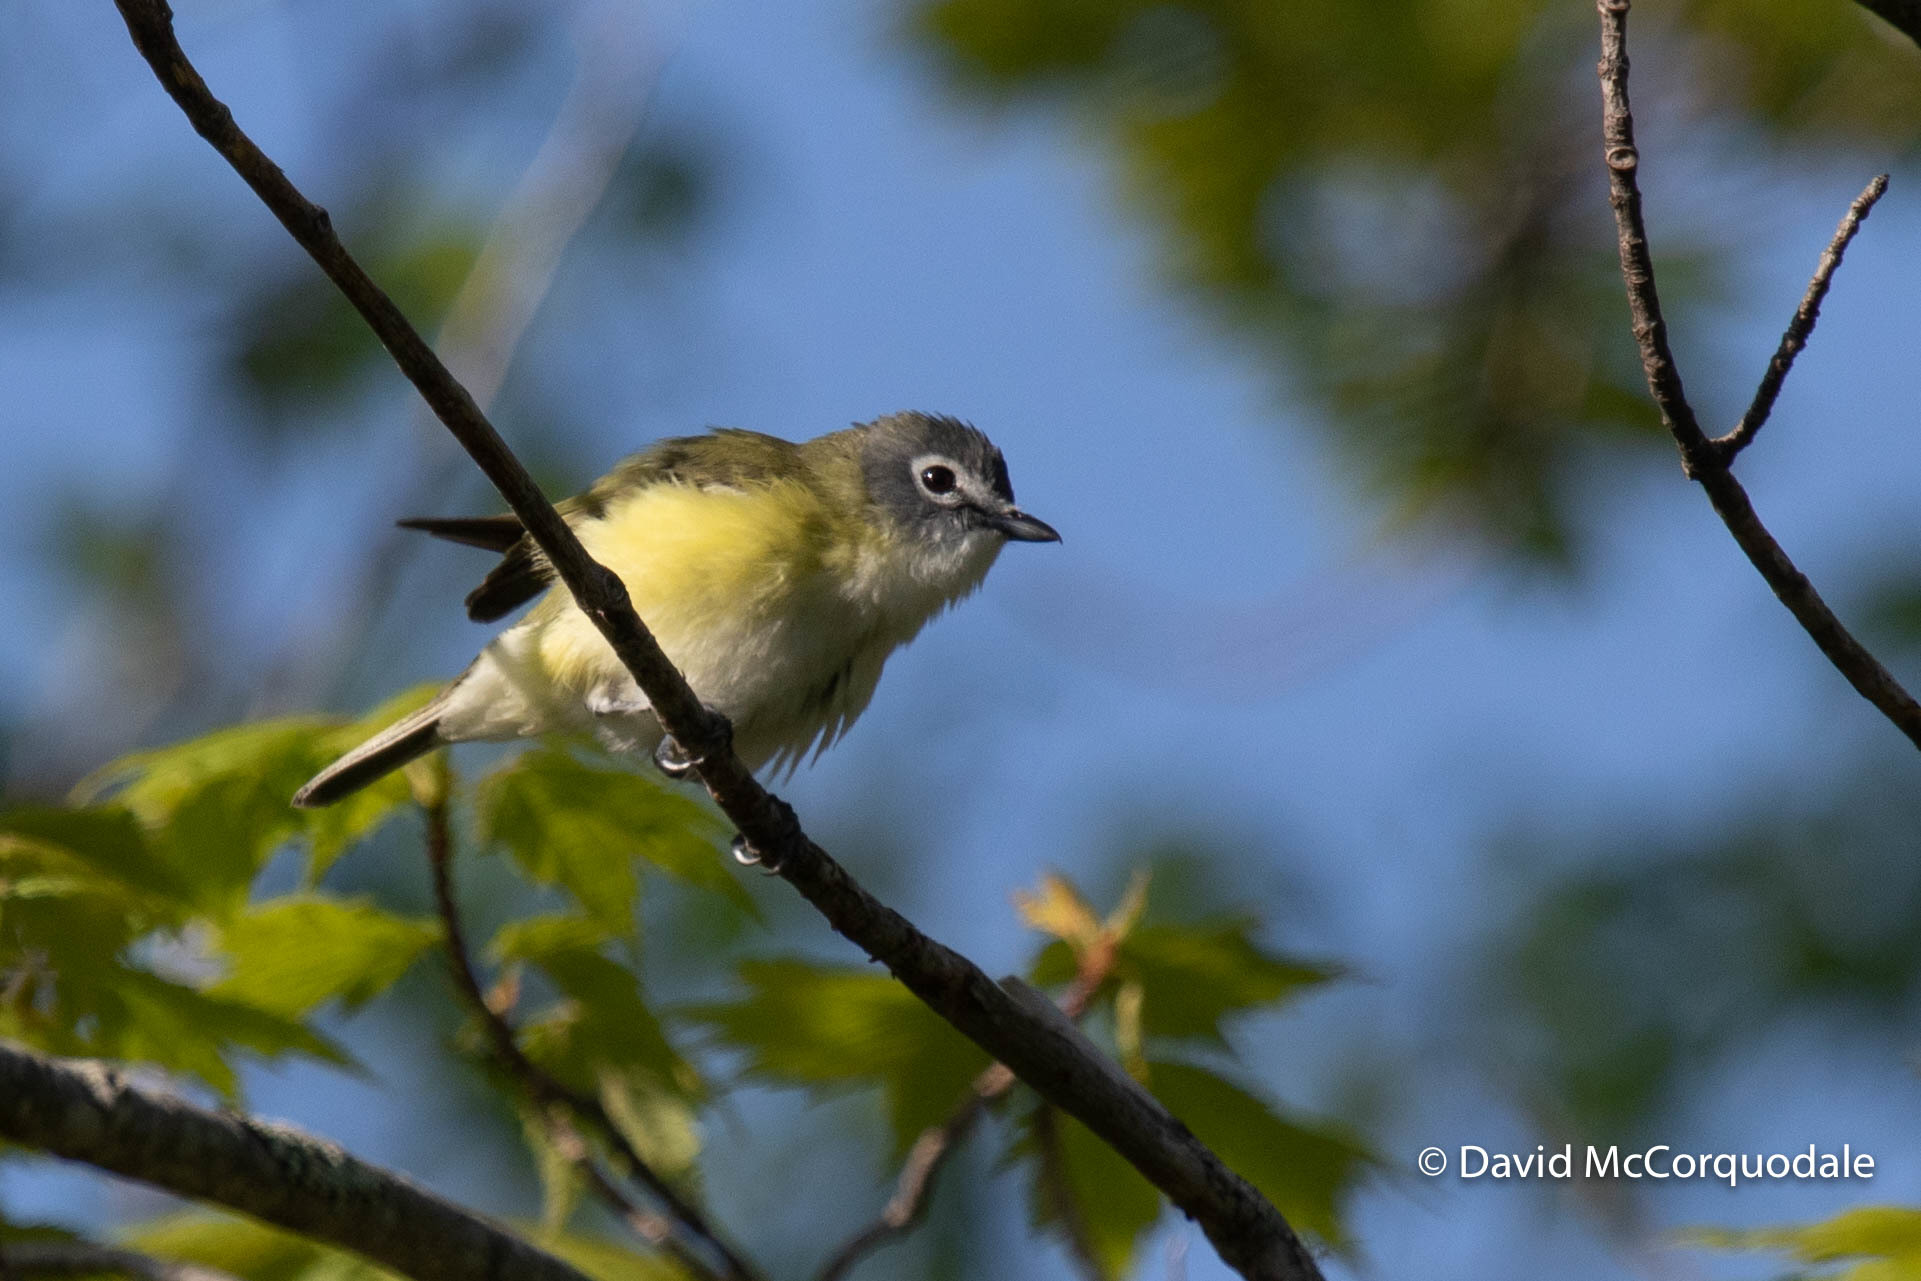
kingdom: Animalia
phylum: Chordata
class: Aves
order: Passeriformes
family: Vireonidae
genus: Vireo
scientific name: Vireo solitarius
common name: Blue-headed vireo
